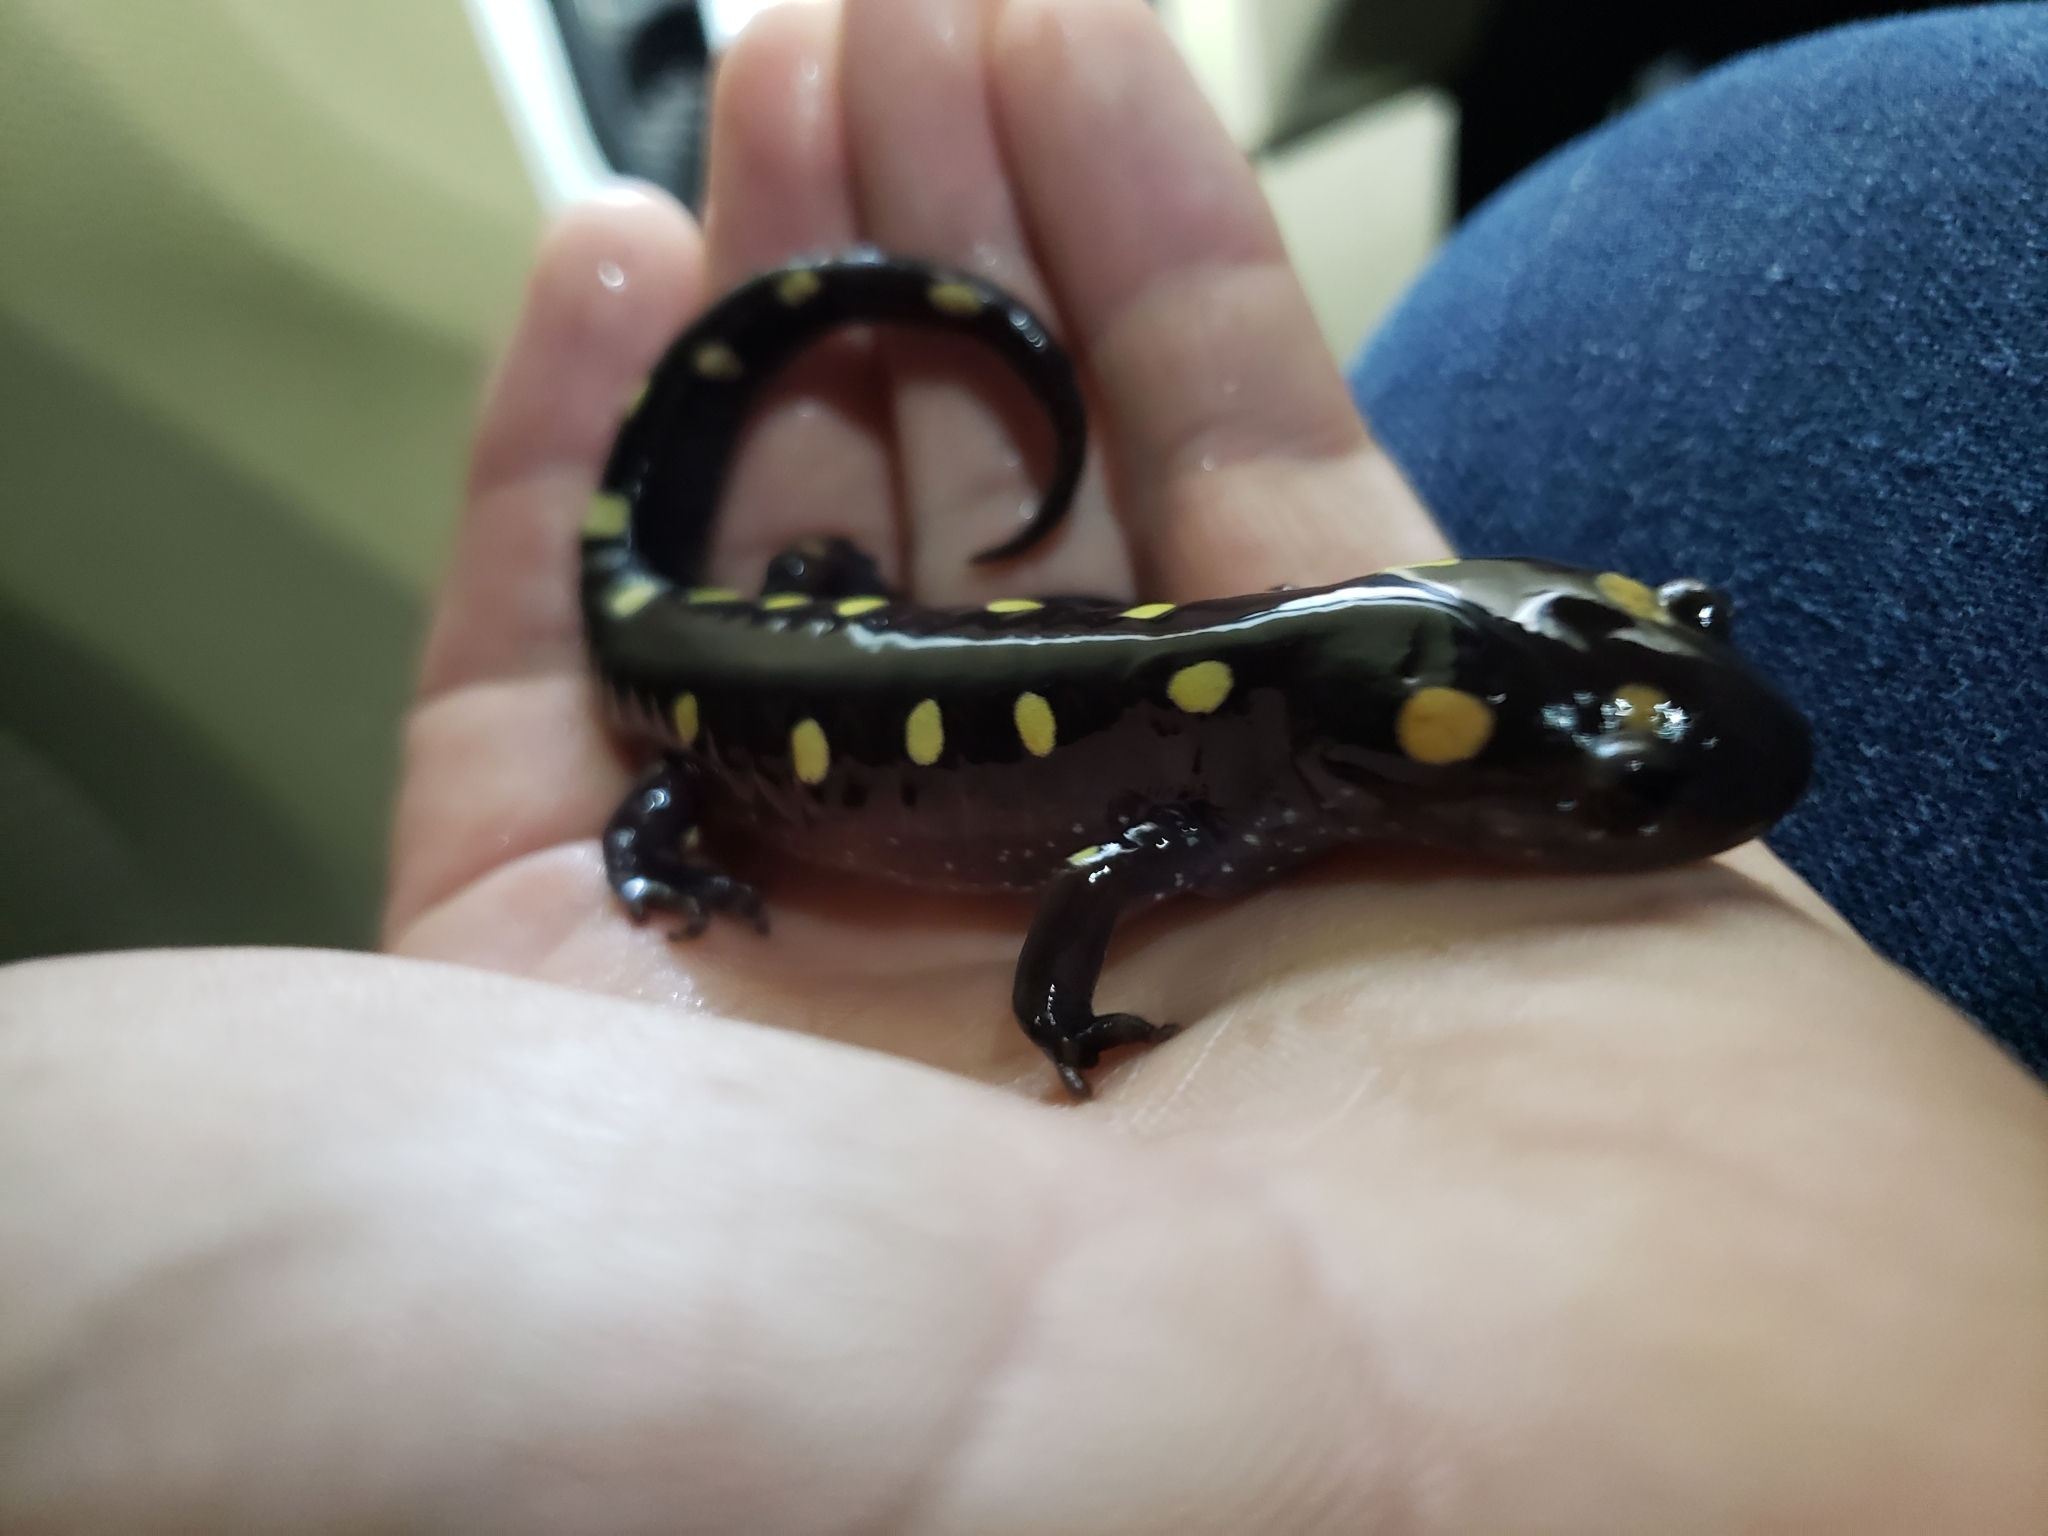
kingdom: Animalia
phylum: Chordata
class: Amphibia
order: Caudata
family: Ambystomatidae
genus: Ambystoma
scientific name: Ambystoma maculatum
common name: Spotted salamander
